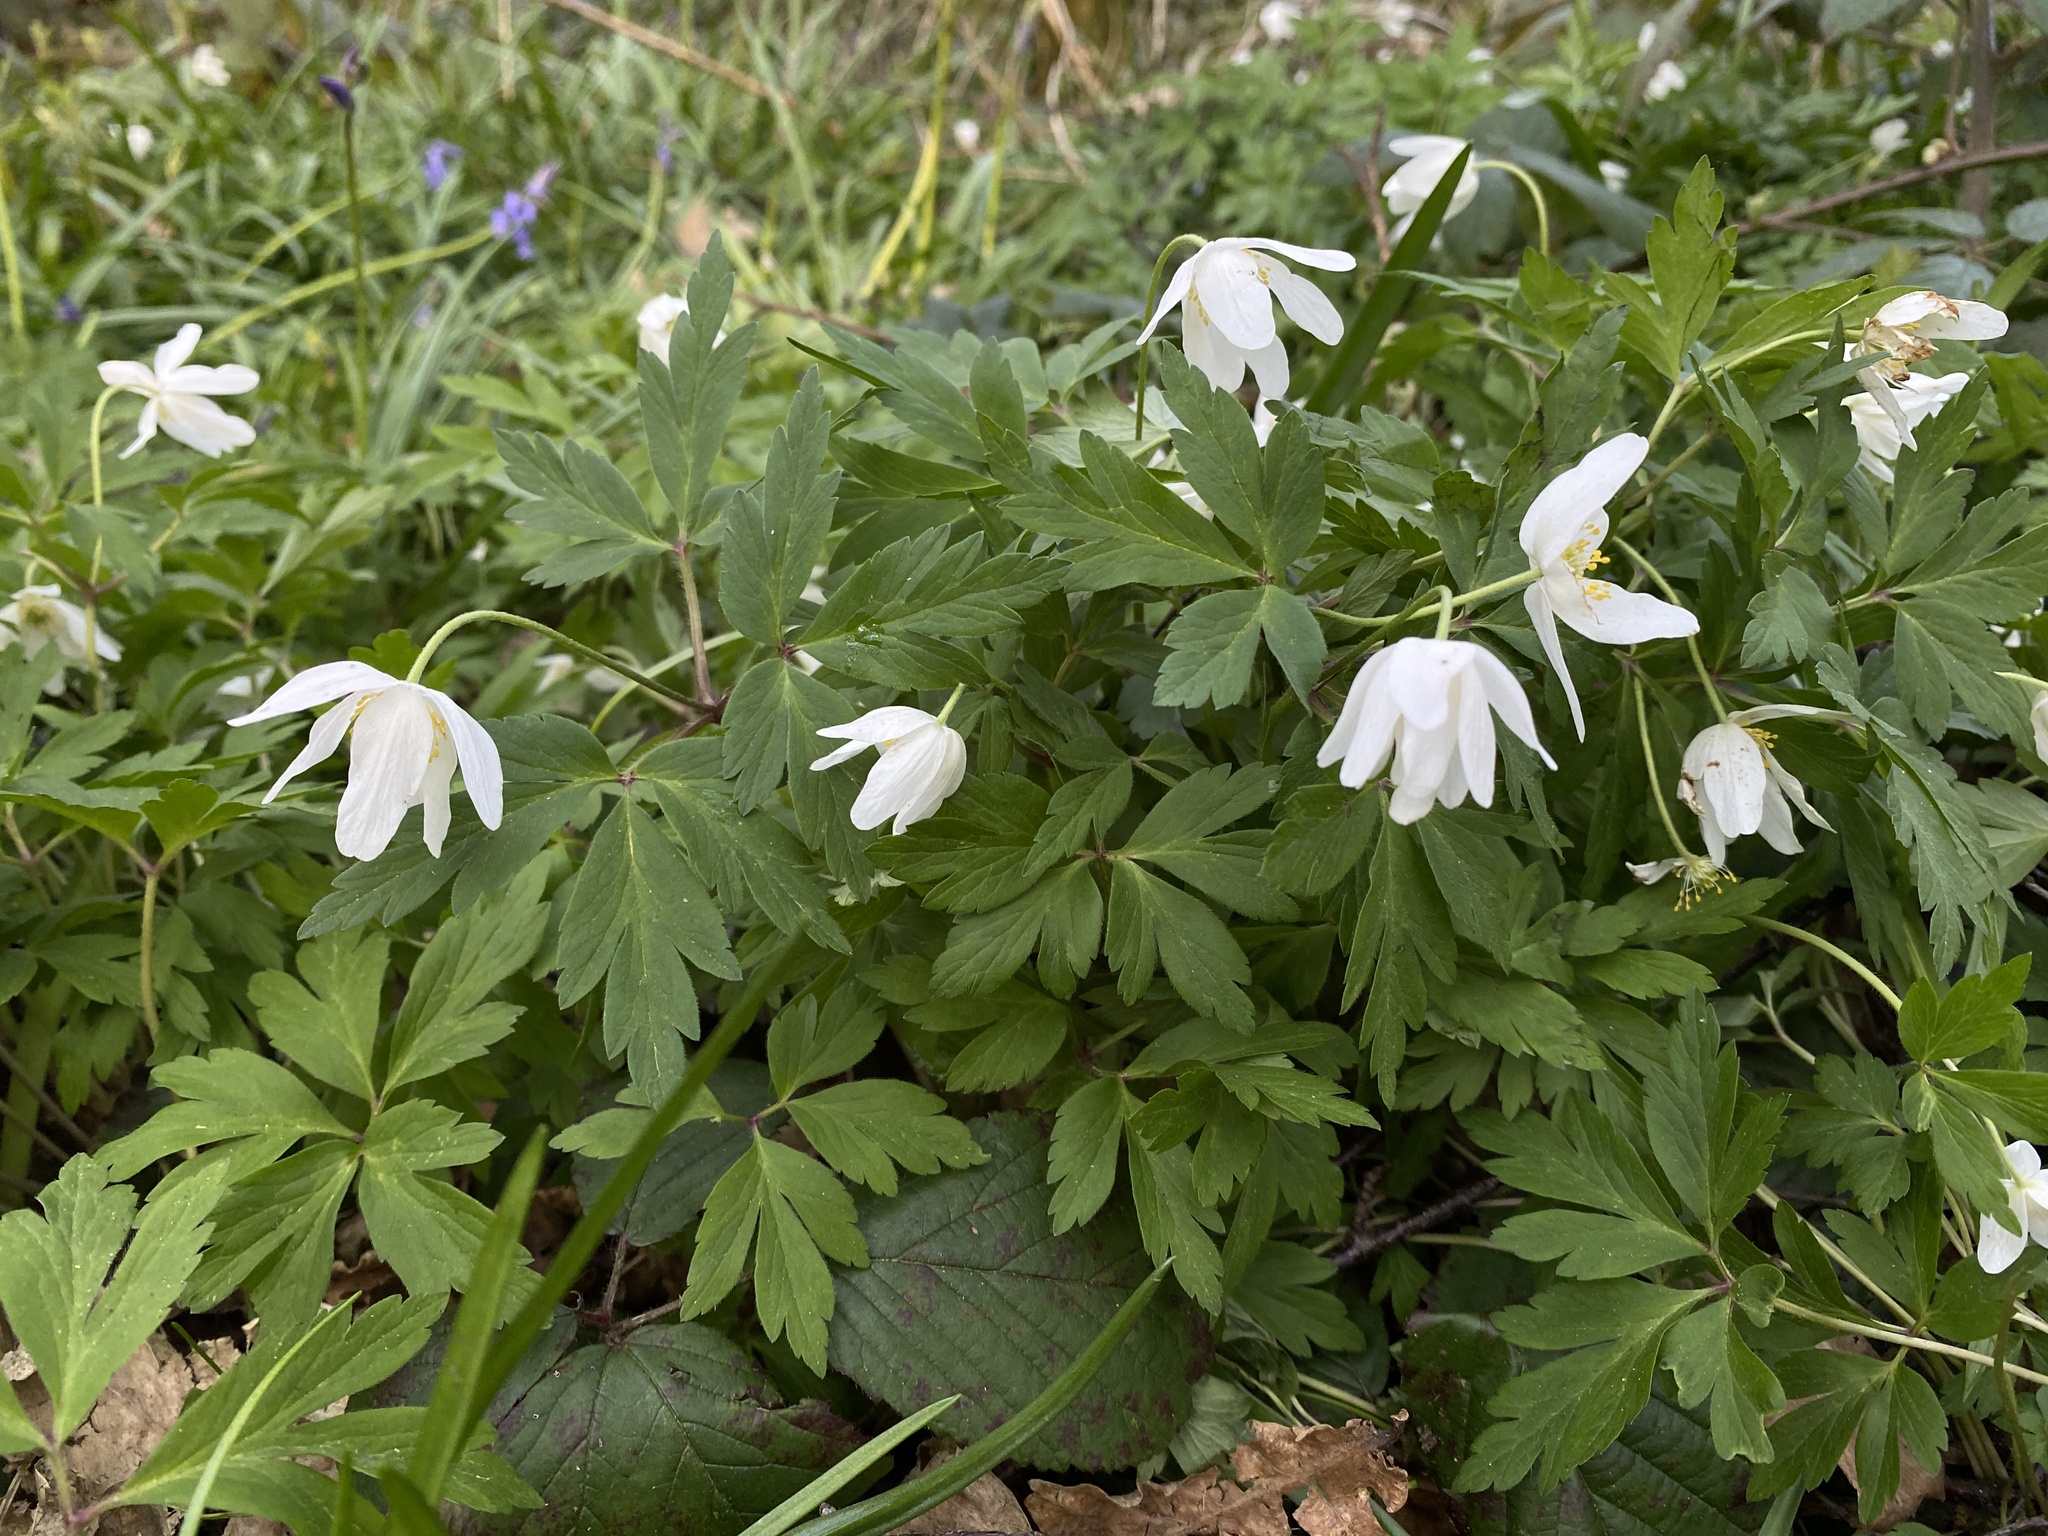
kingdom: Plantae
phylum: Tracheophyta
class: Magnoliopsida
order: Ranunculales
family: Ranunculaceae
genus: Anemone
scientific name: Anemone nemorosa
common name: Wood anemone
